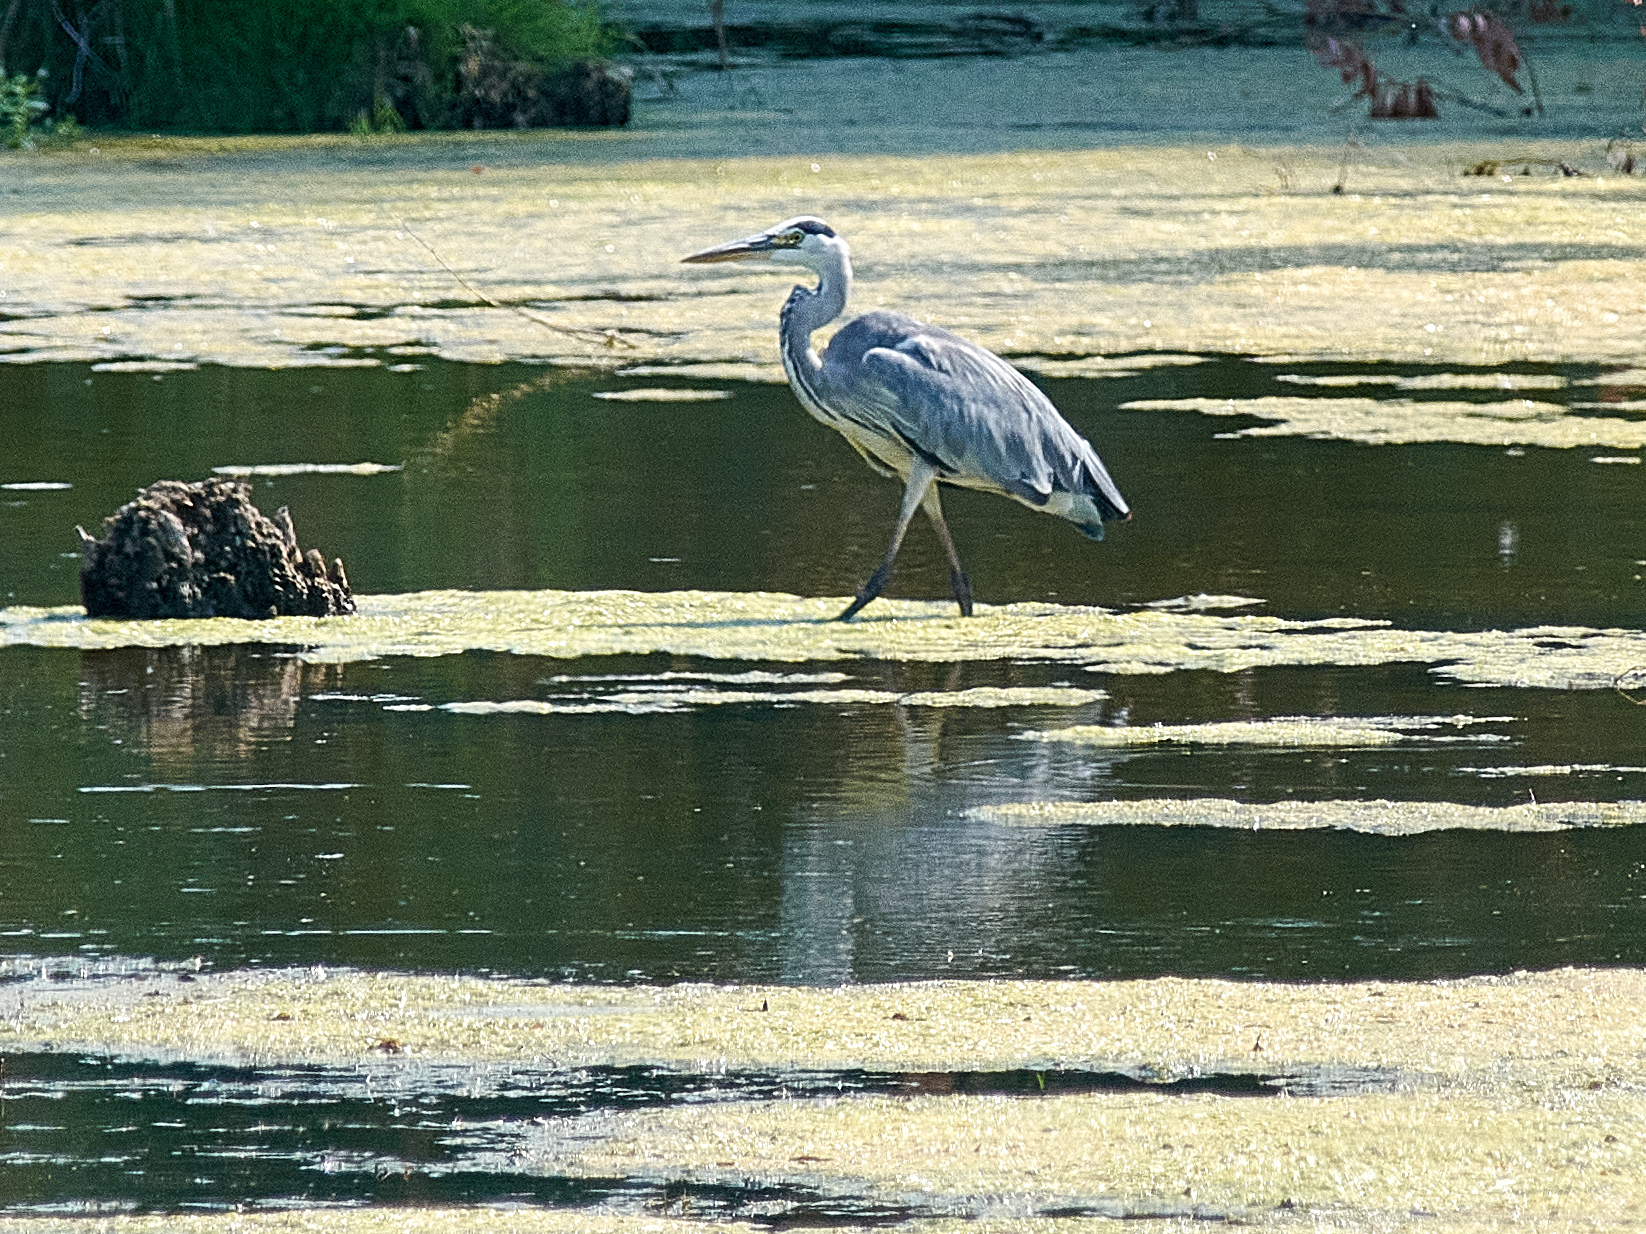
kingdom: Animalia
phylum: Chordata
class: Aves
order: Pelecaniformes
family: Ardeidae
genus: Ardea
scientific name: Ardea cinerea
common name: Grey heron
